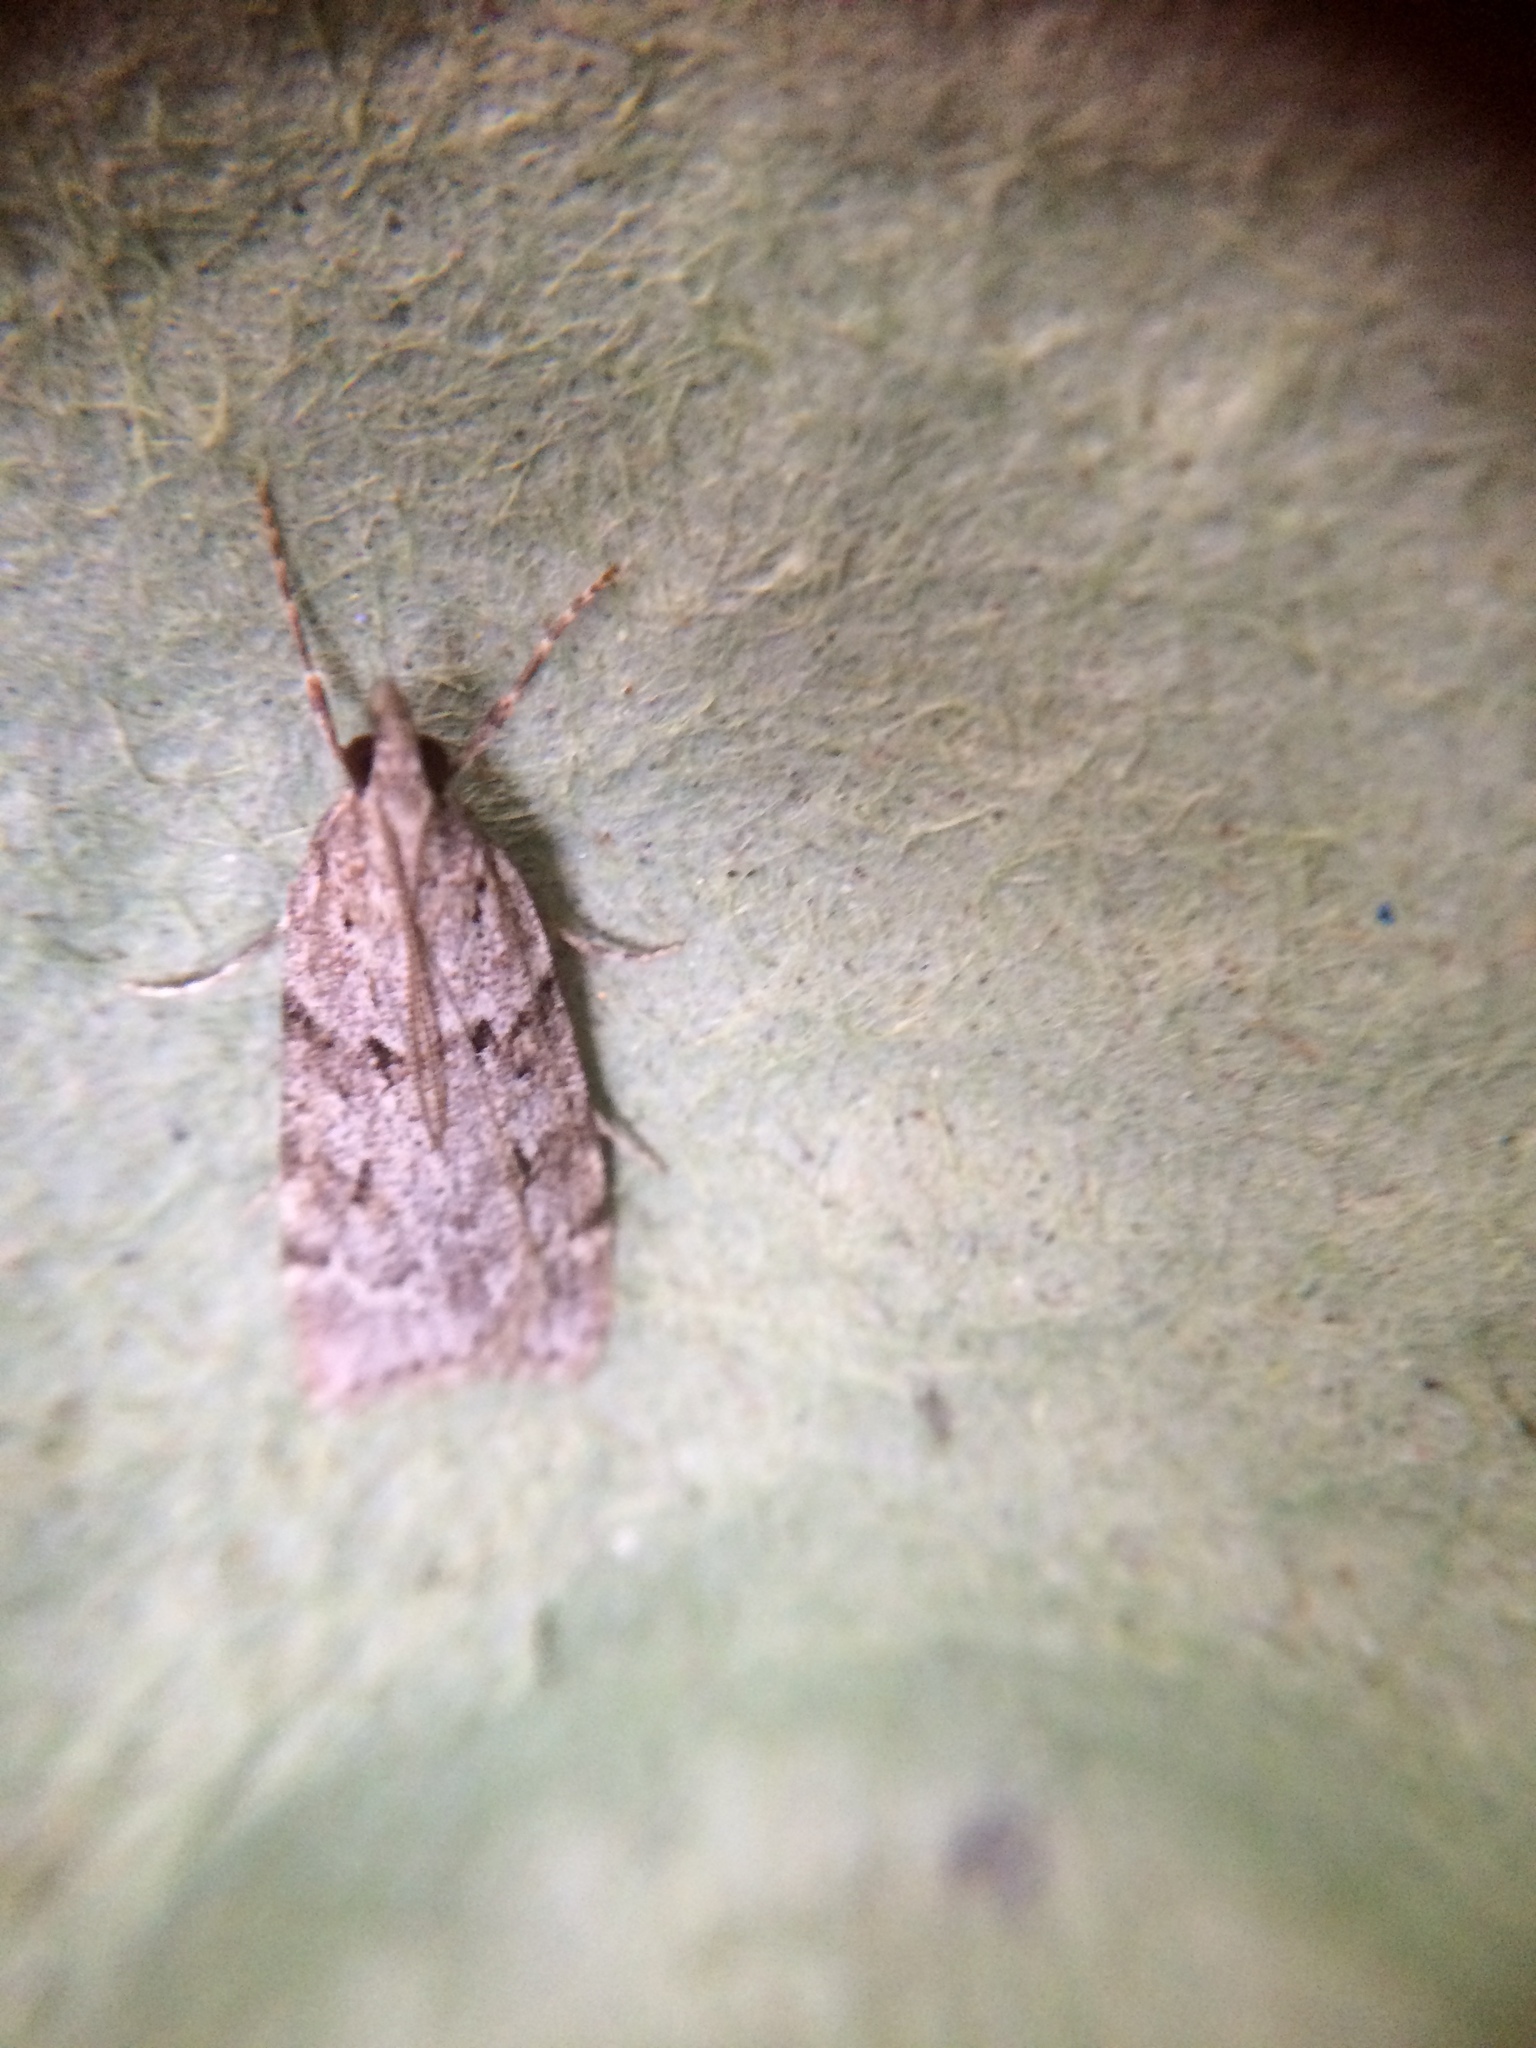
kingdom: Animalia
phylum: Arthropoda
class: Insecta
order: Lepidoptera
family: Crambidae
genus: Scoparia
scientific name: Scoparia cembrella
